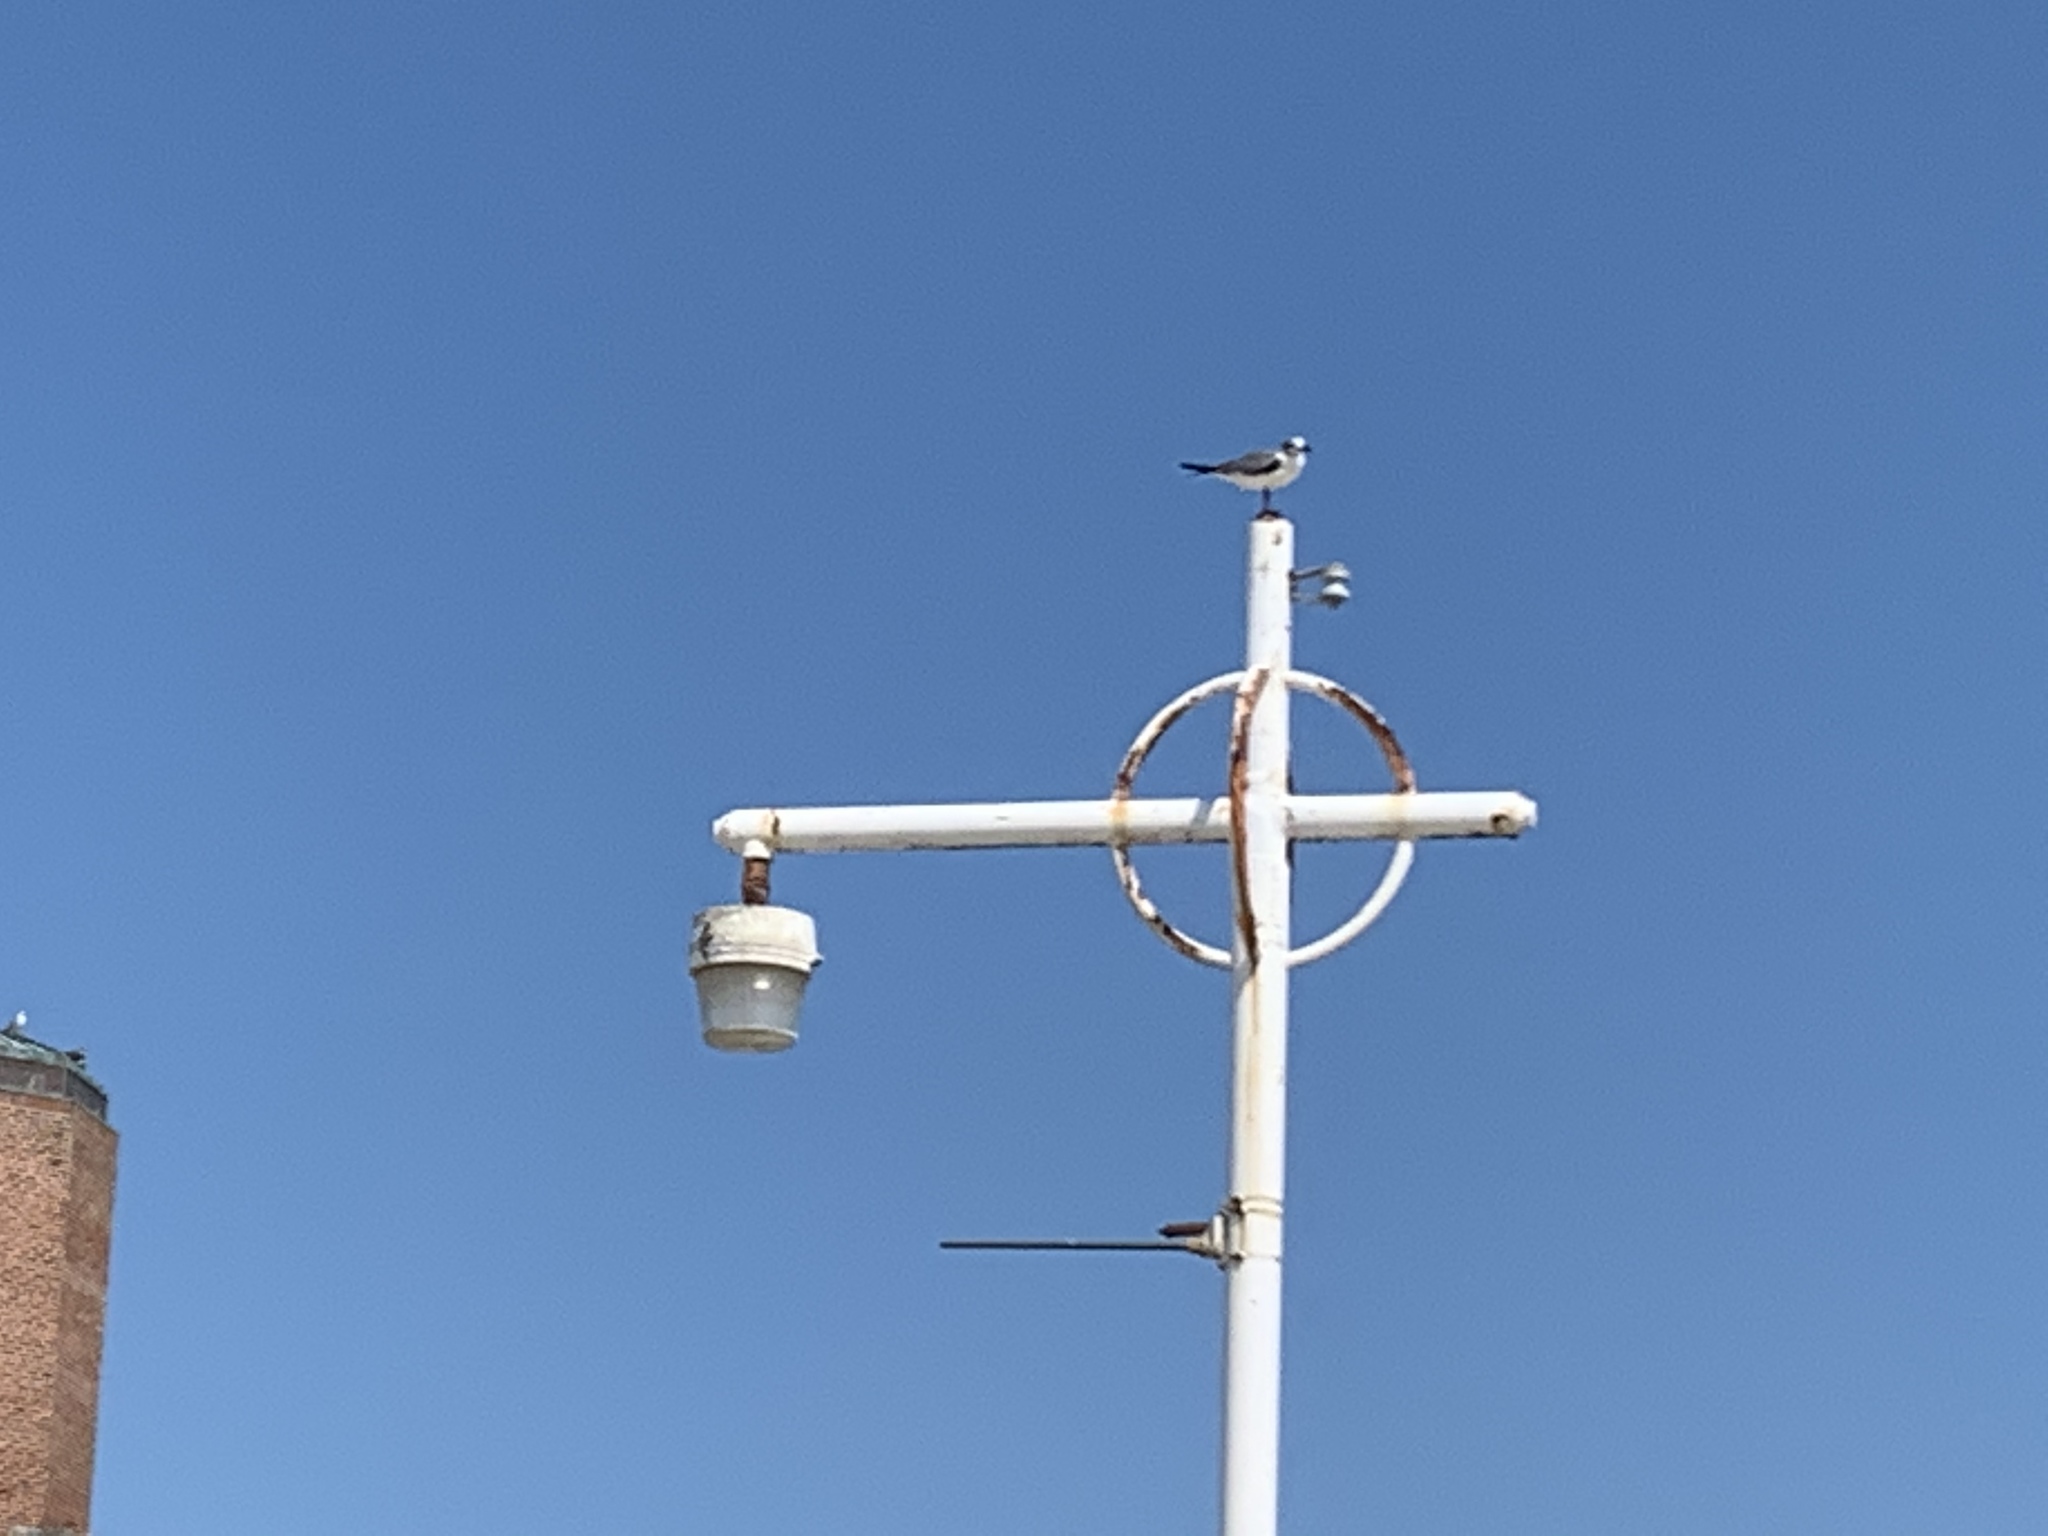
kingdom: Animalia
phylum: Chordata
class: Aves
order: Charadriiformes
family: Laridae
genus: Leucophaeus
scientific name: Leucophaeus atricilla
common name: Laughing gull
